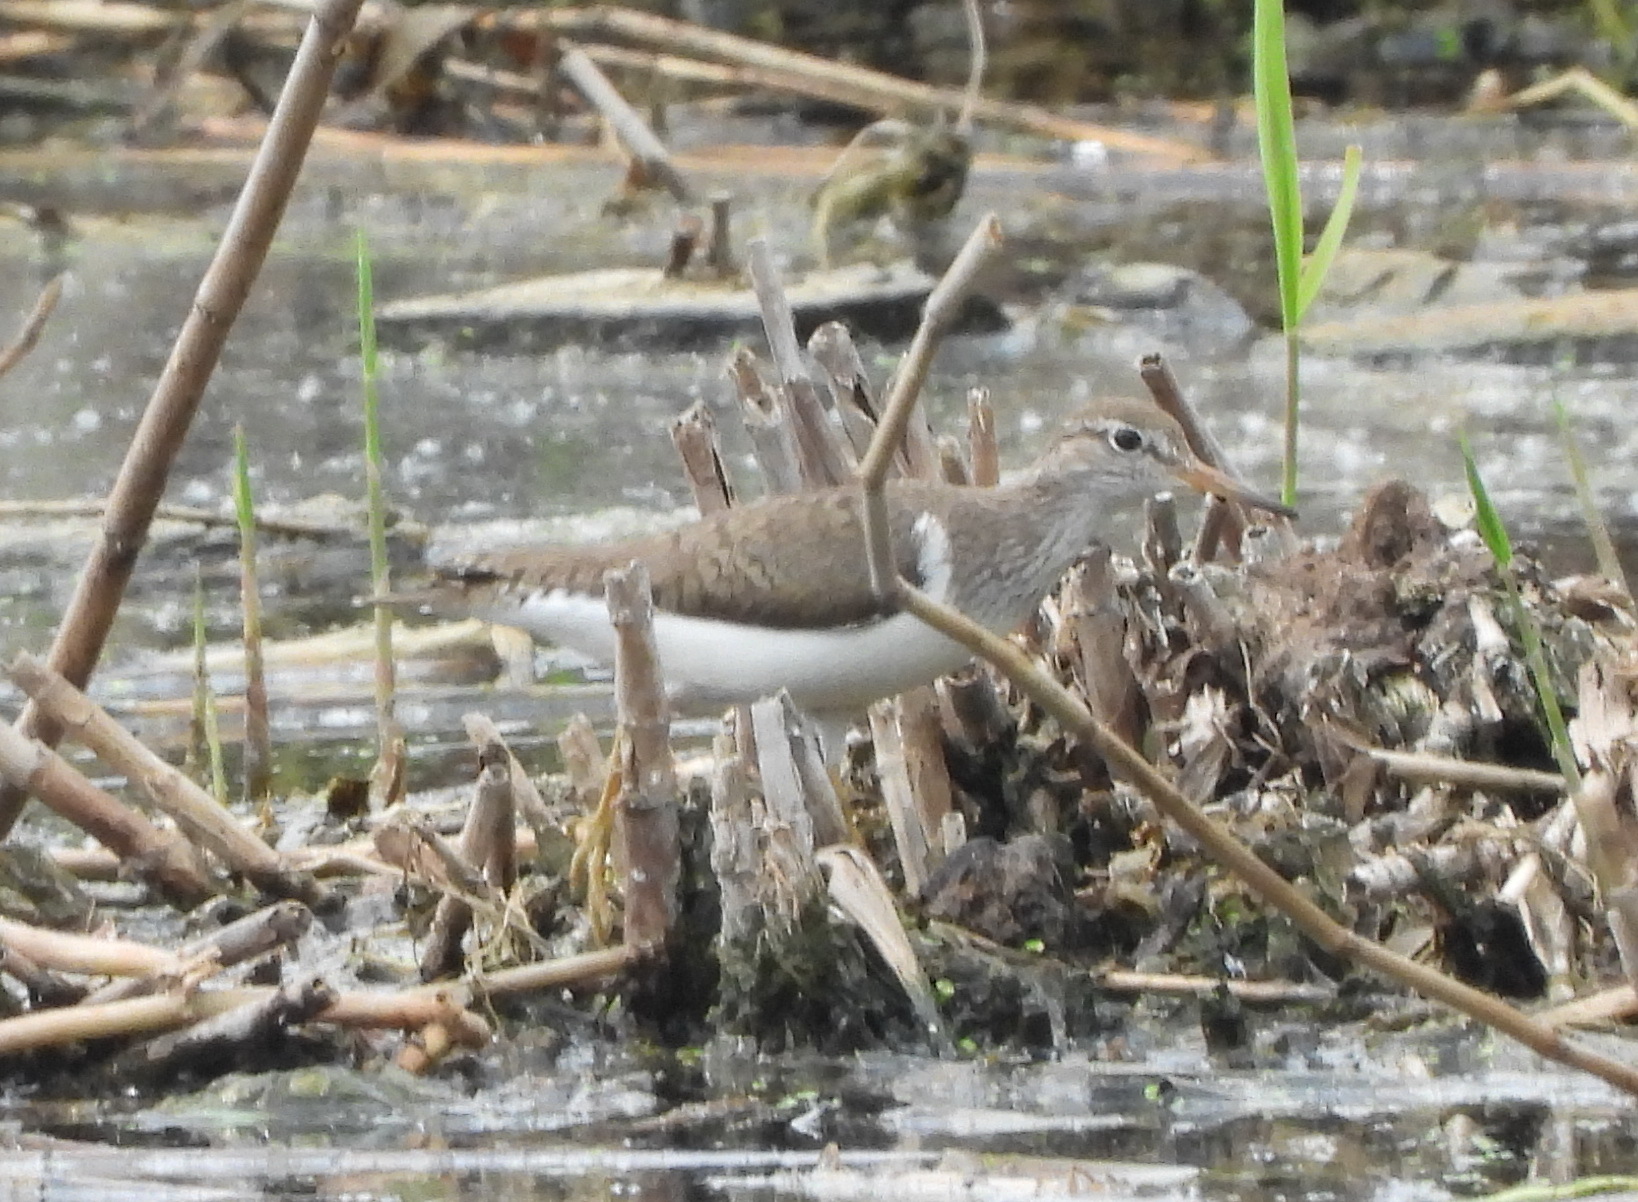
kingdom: Animalia
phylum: Chordata
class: Aves
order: Charadriiformes
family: Scolopacidae
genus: Actitis
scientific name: Actitis hypoleucos
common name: Common sandpiper
